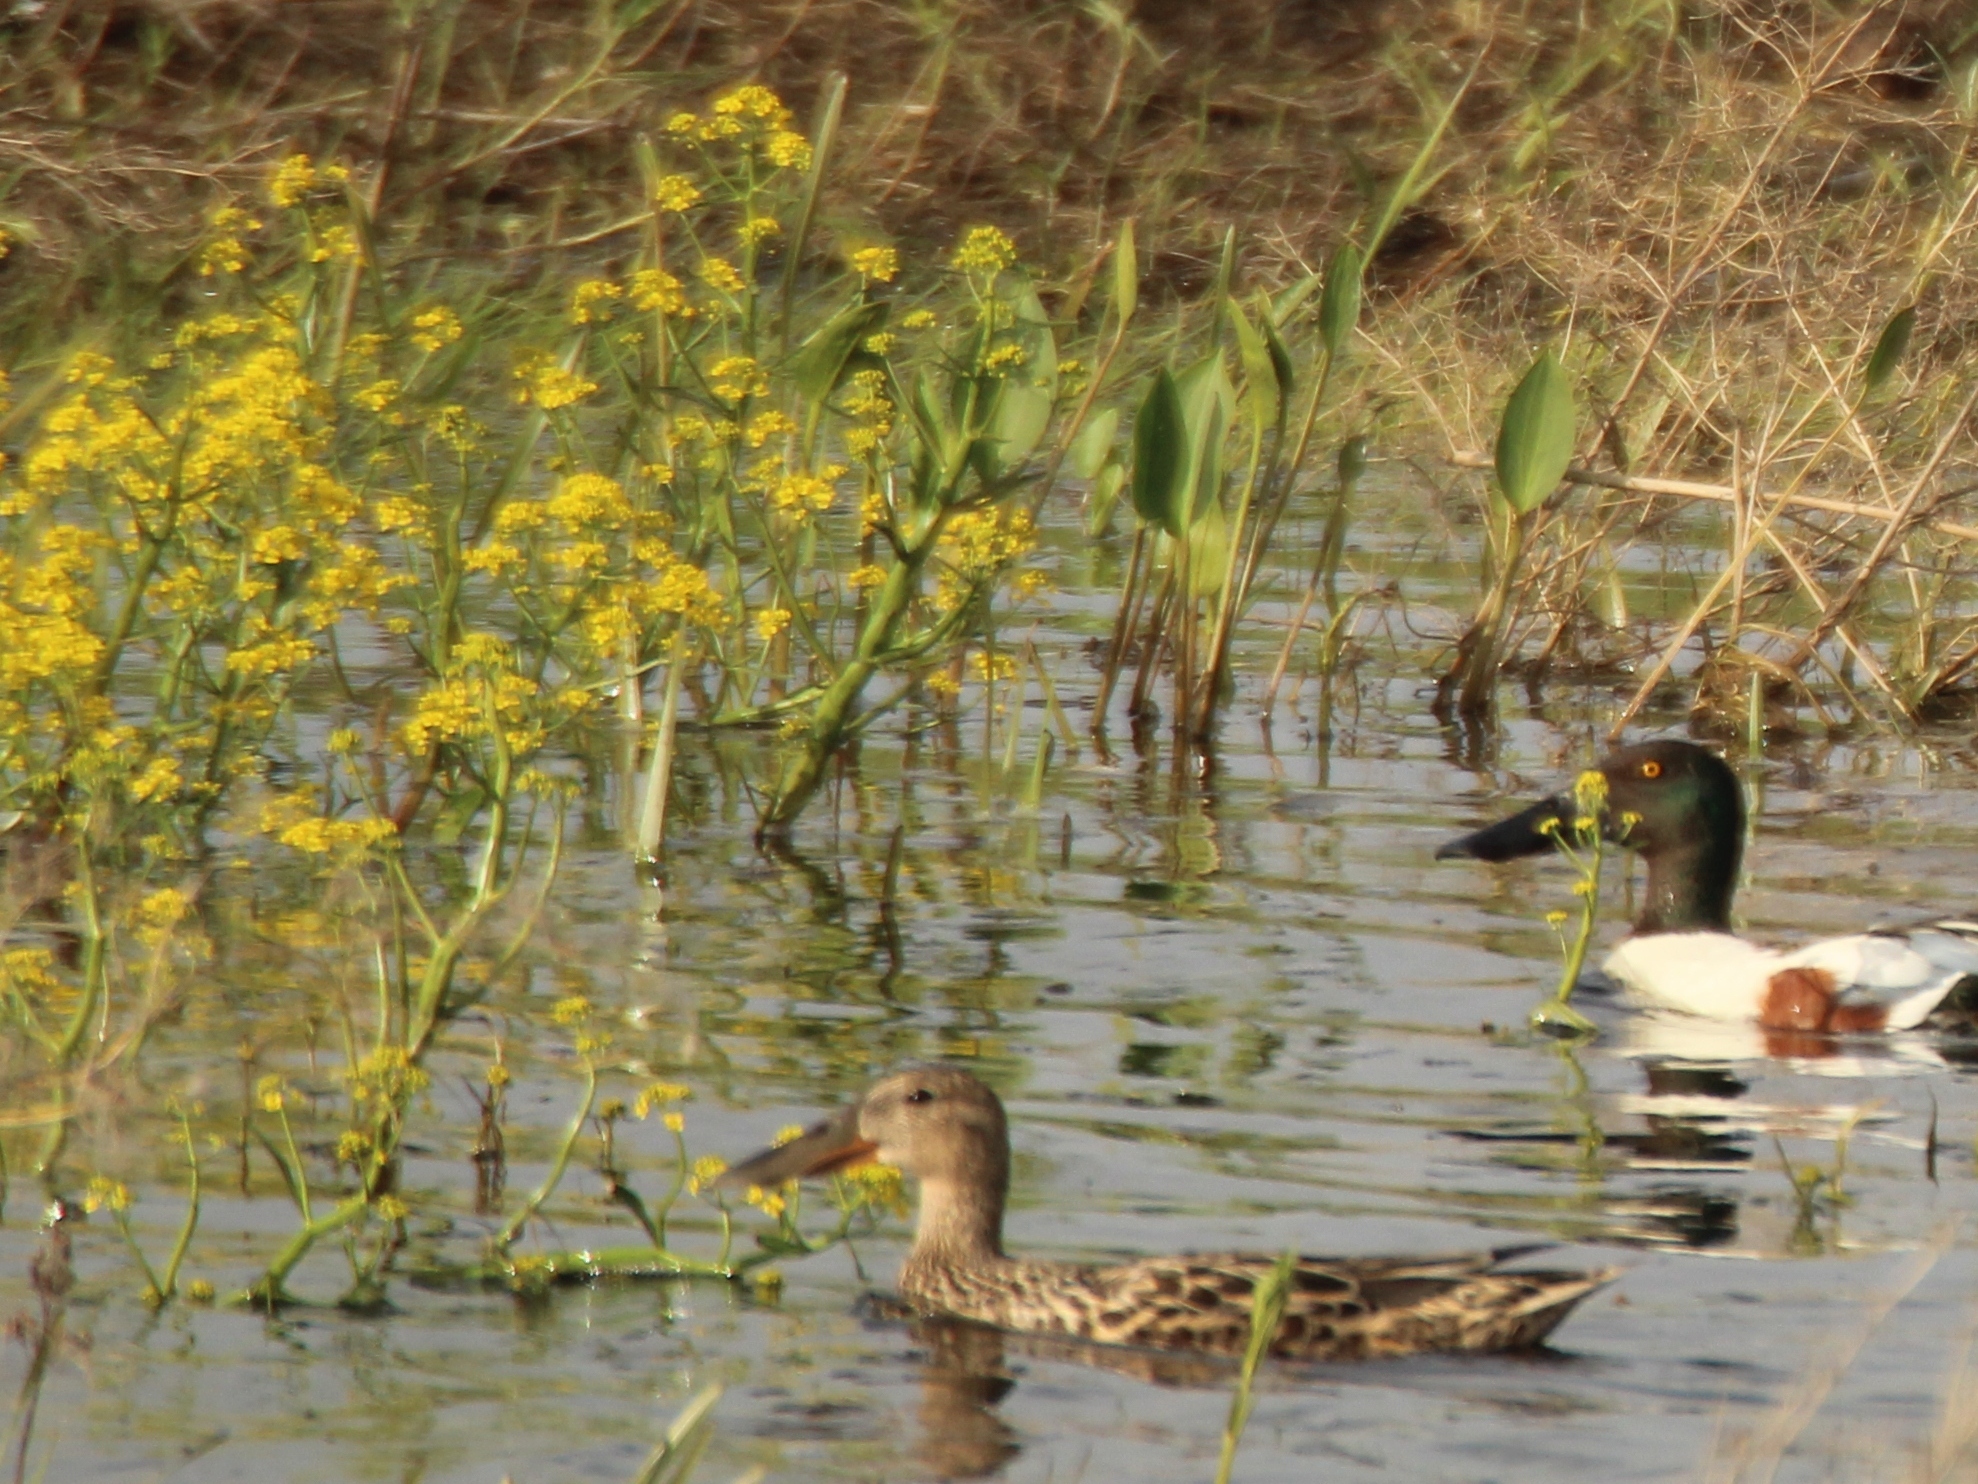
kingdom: Plantae
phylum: Tracheophyta
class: Magnoliopsida
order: Brassicales
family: Brassicaceae
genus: Rorippa
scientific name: Rorippa amphibia
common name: Great yellow-cress
